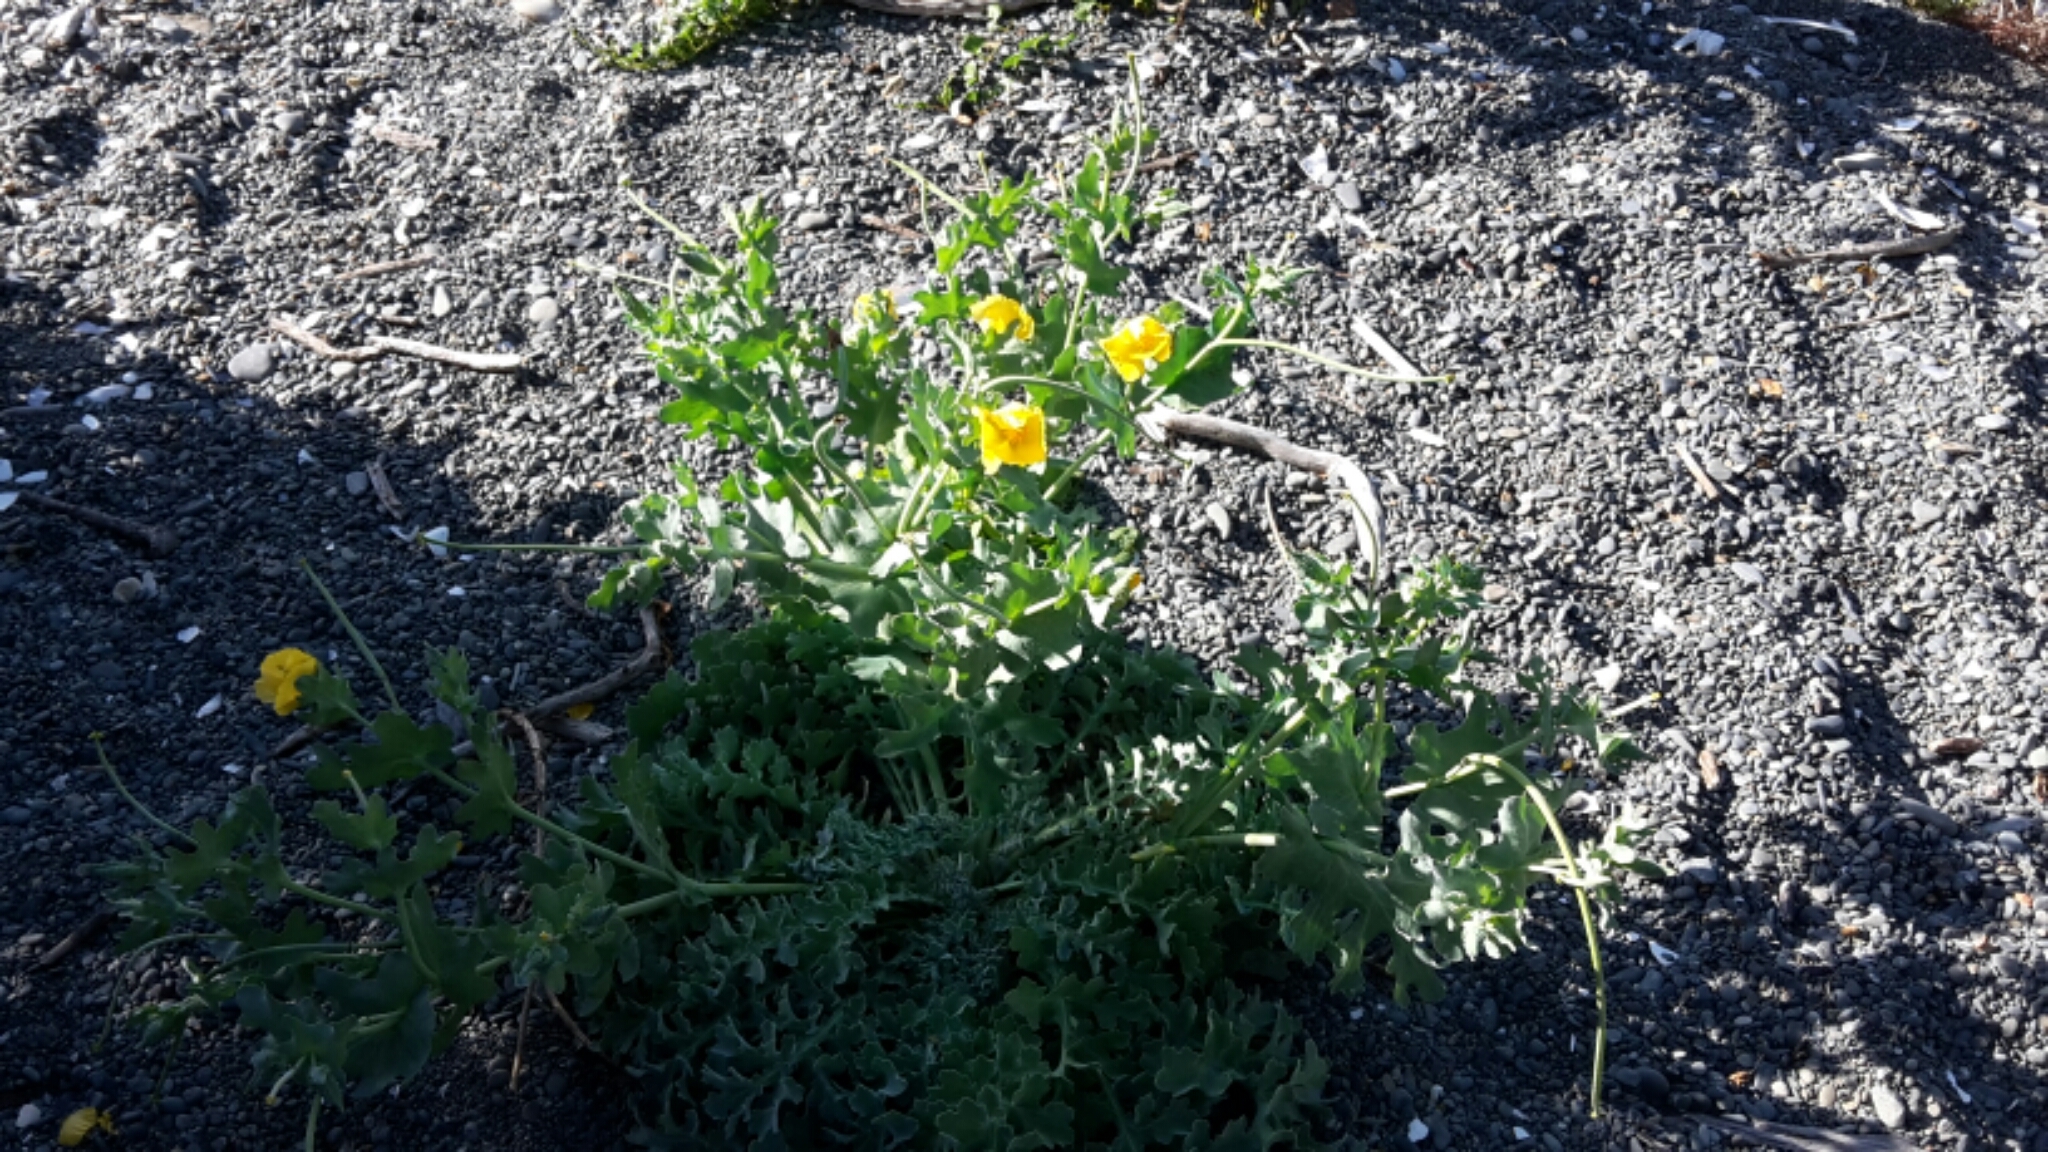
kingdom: Plantae
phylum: Tracheophyta
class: Magnoliopsida
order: Ranunculales
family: Papaveraceae
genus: Glaucium
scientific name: Glaucium flavum
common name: Yellow horned-poppy
